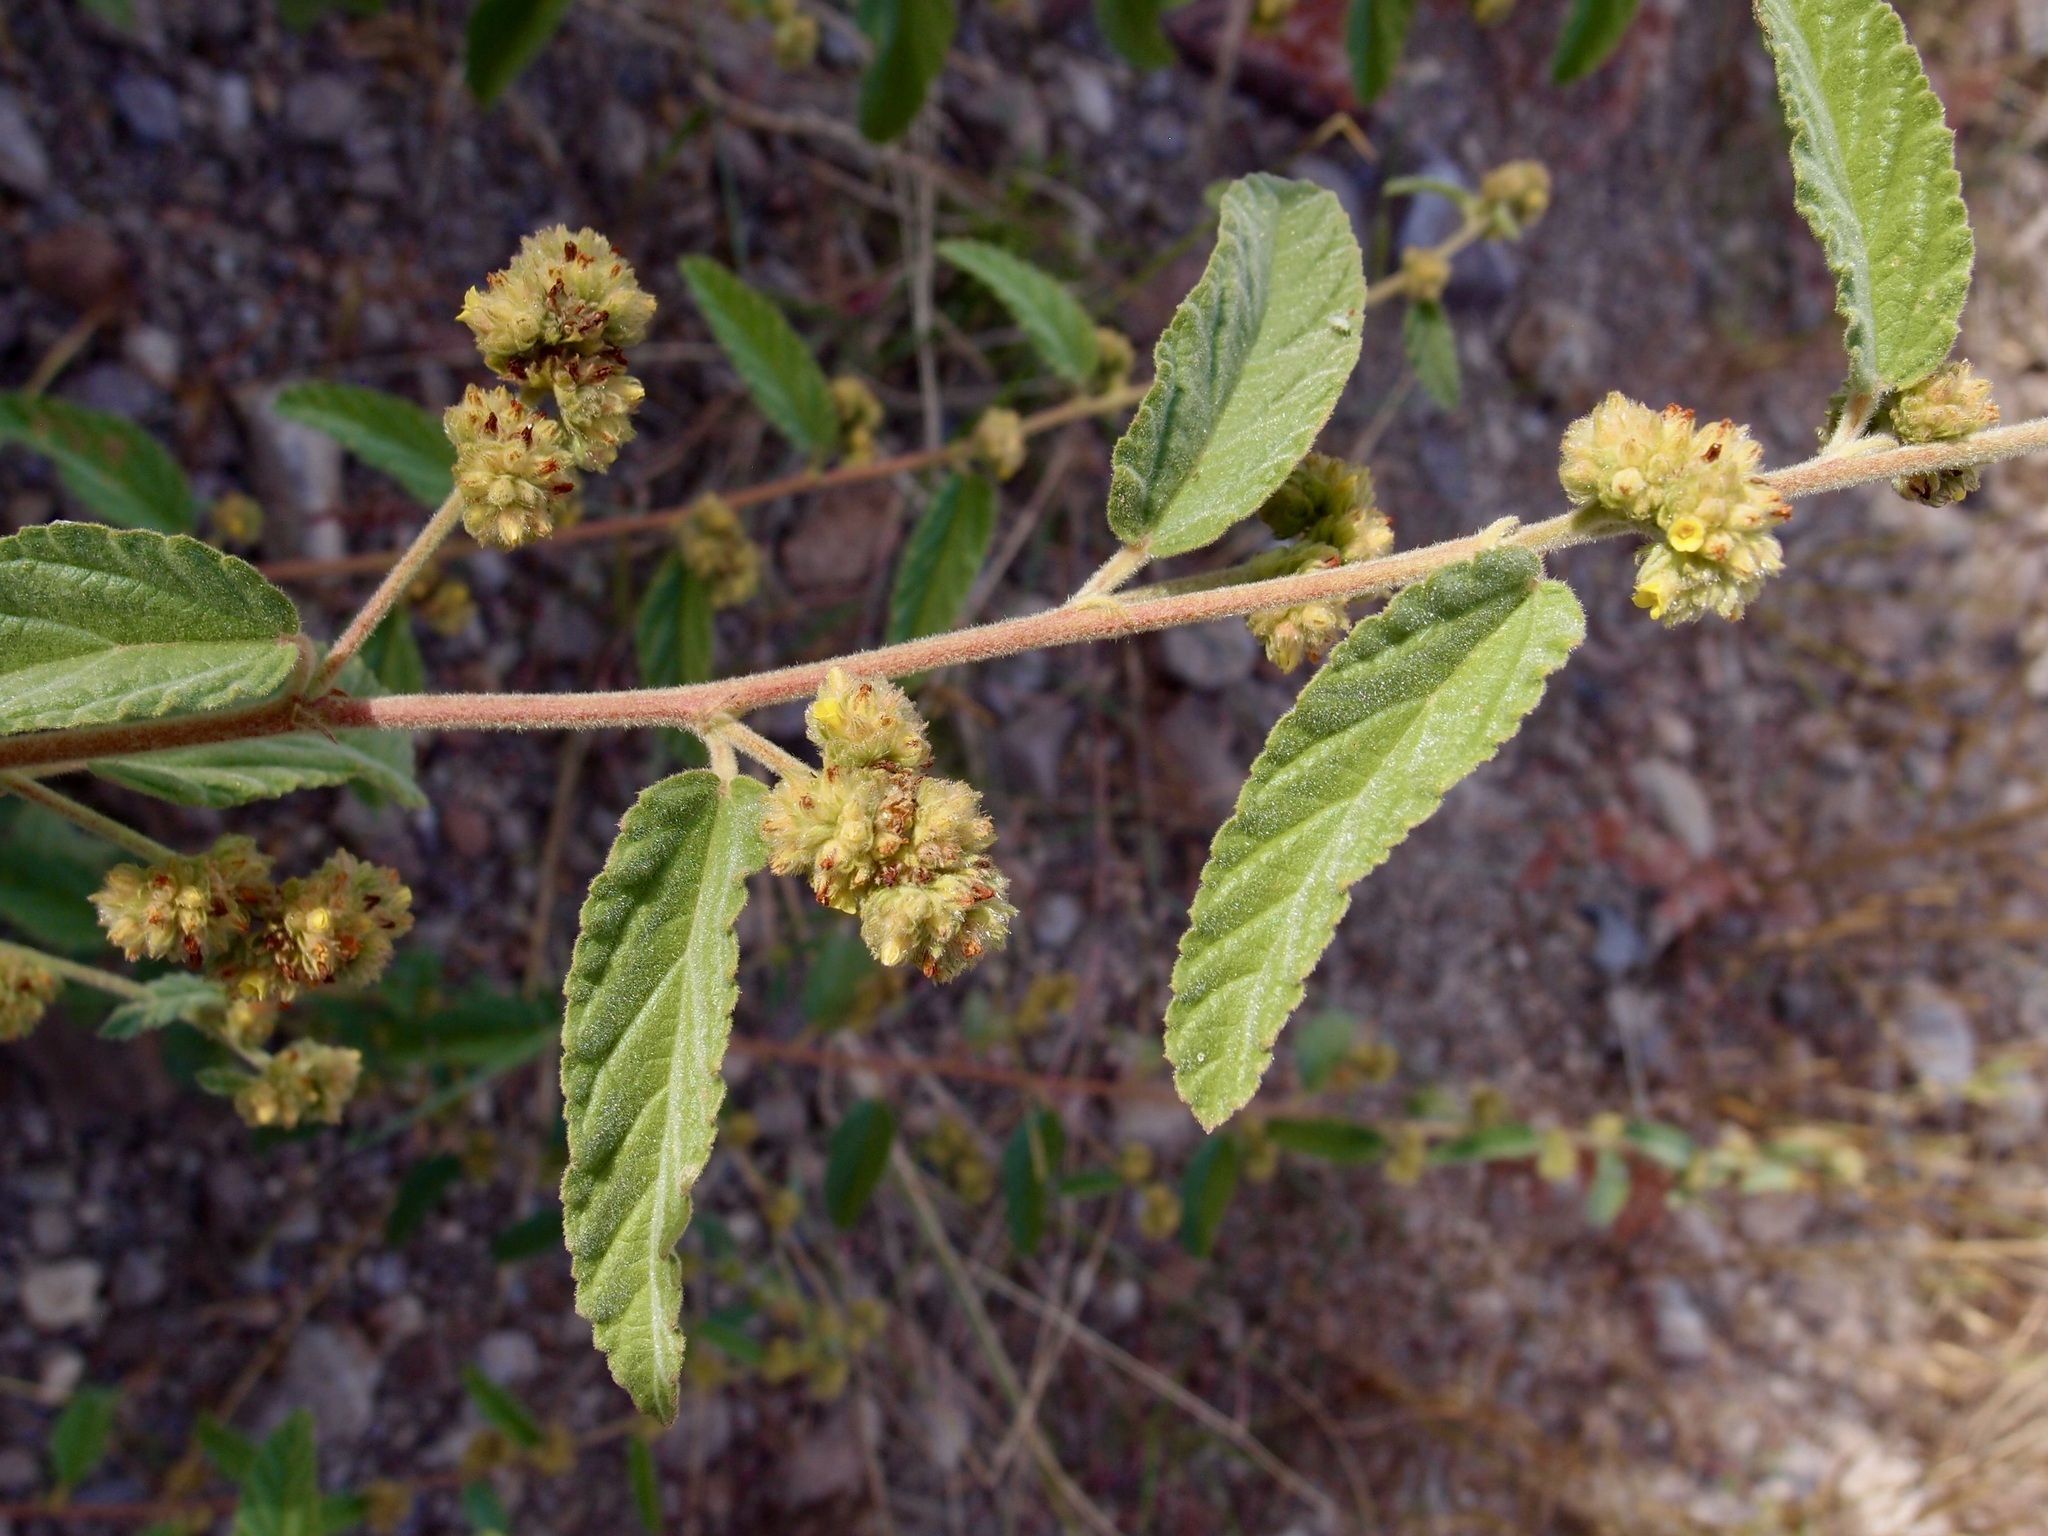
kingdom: Plantae
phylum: Tracheophyta
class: Magnoliopsida
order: Malvales
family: Malvaceae
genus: Waltheria
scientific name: Waltheria indica
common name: Leather-coat
